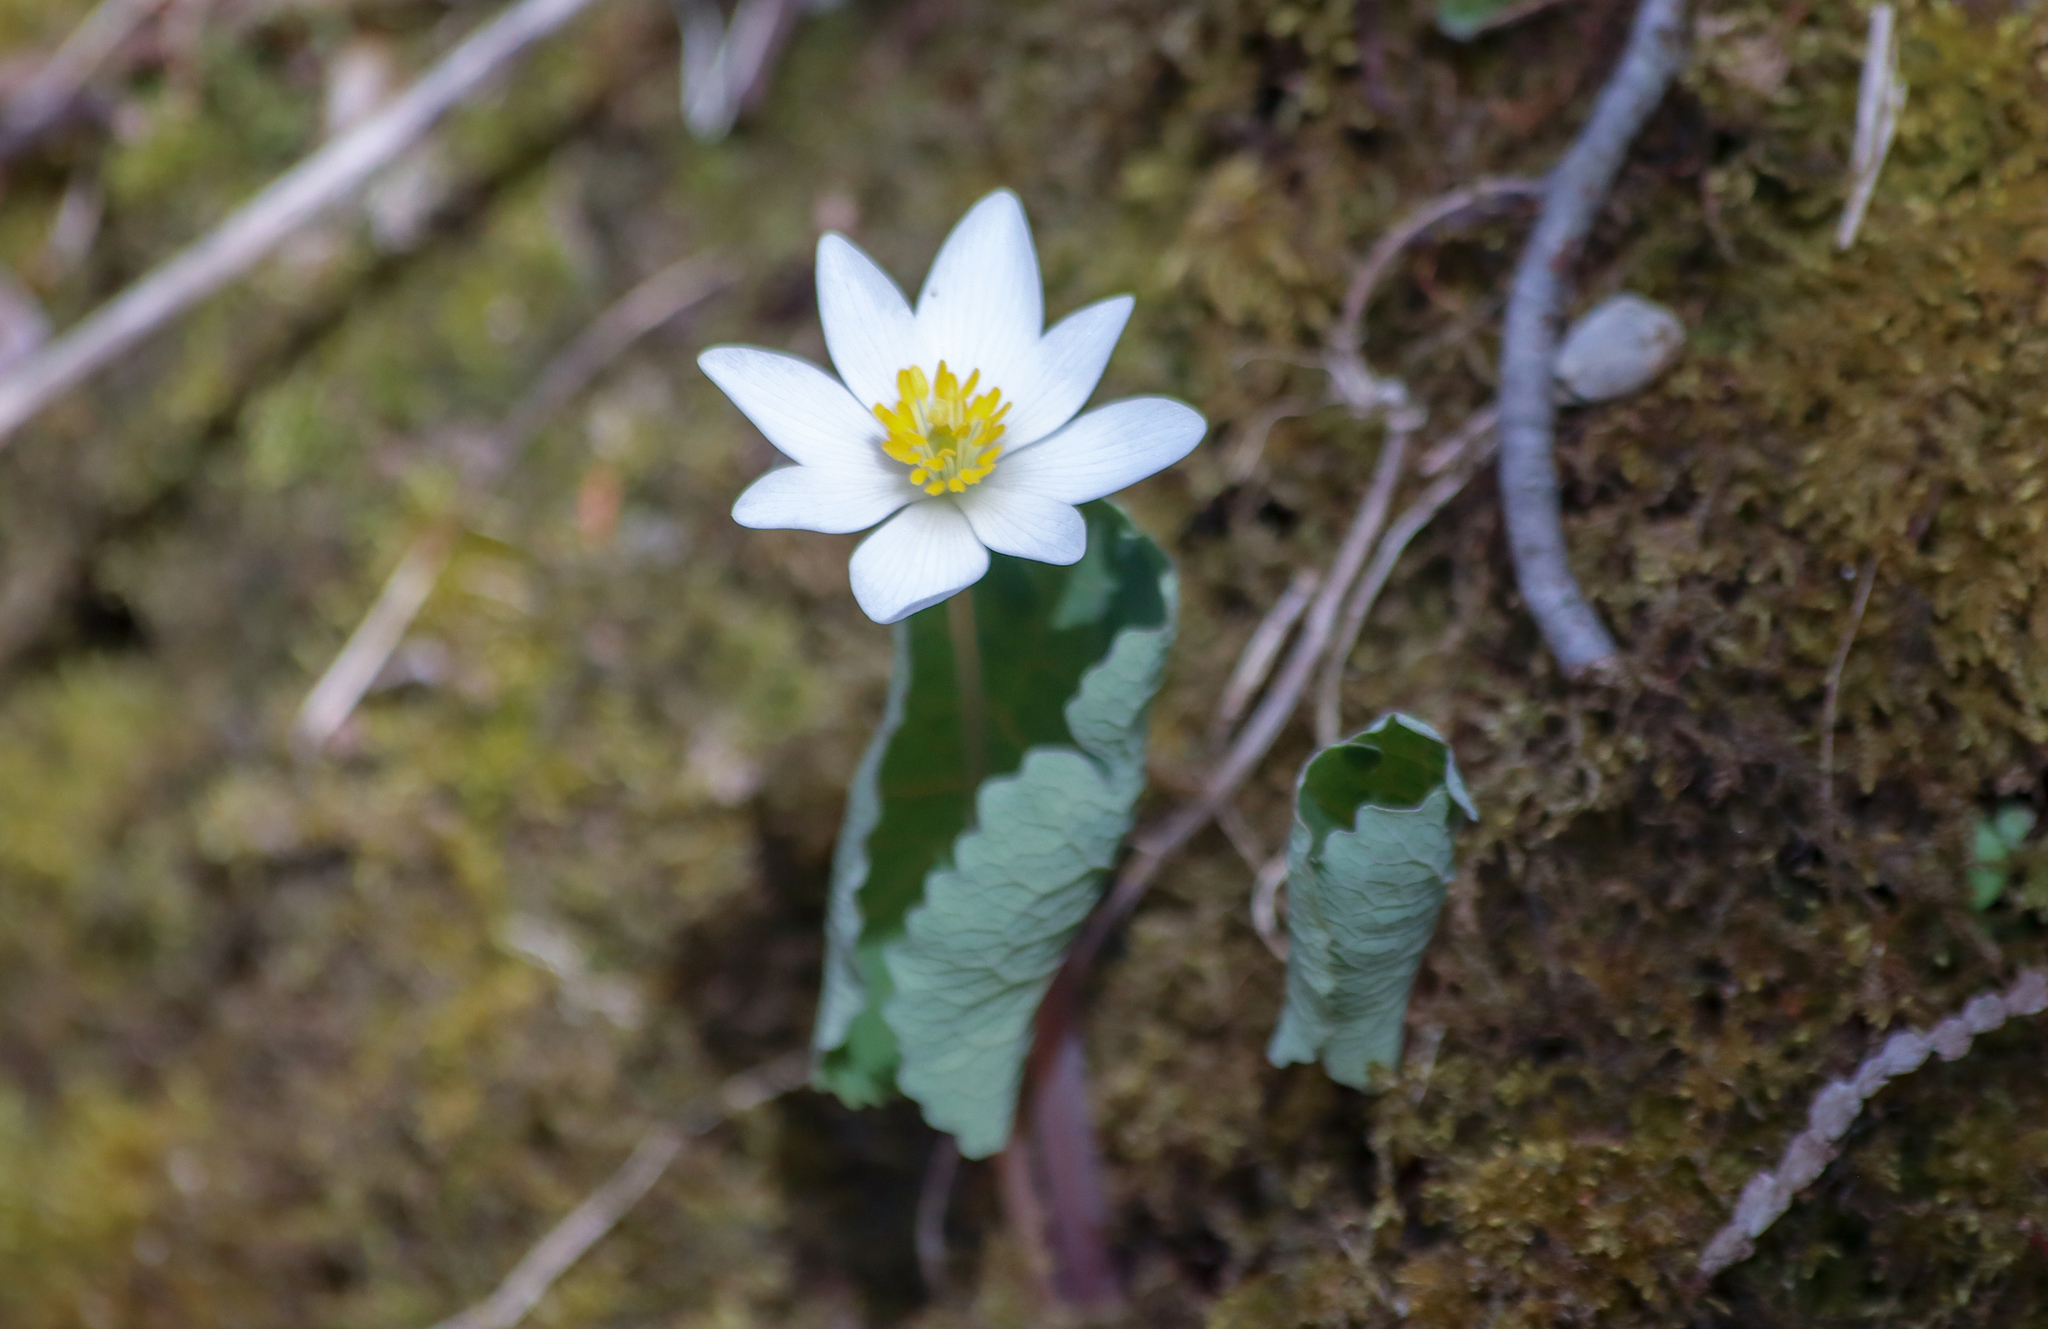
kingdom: Plantae
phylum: Tracheophyta
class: Magnoliopsida
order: Ranunculales
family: Papaveraceae
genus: Sanguinaria
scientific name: Sanguinaria canadensis
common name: Bloodroot
